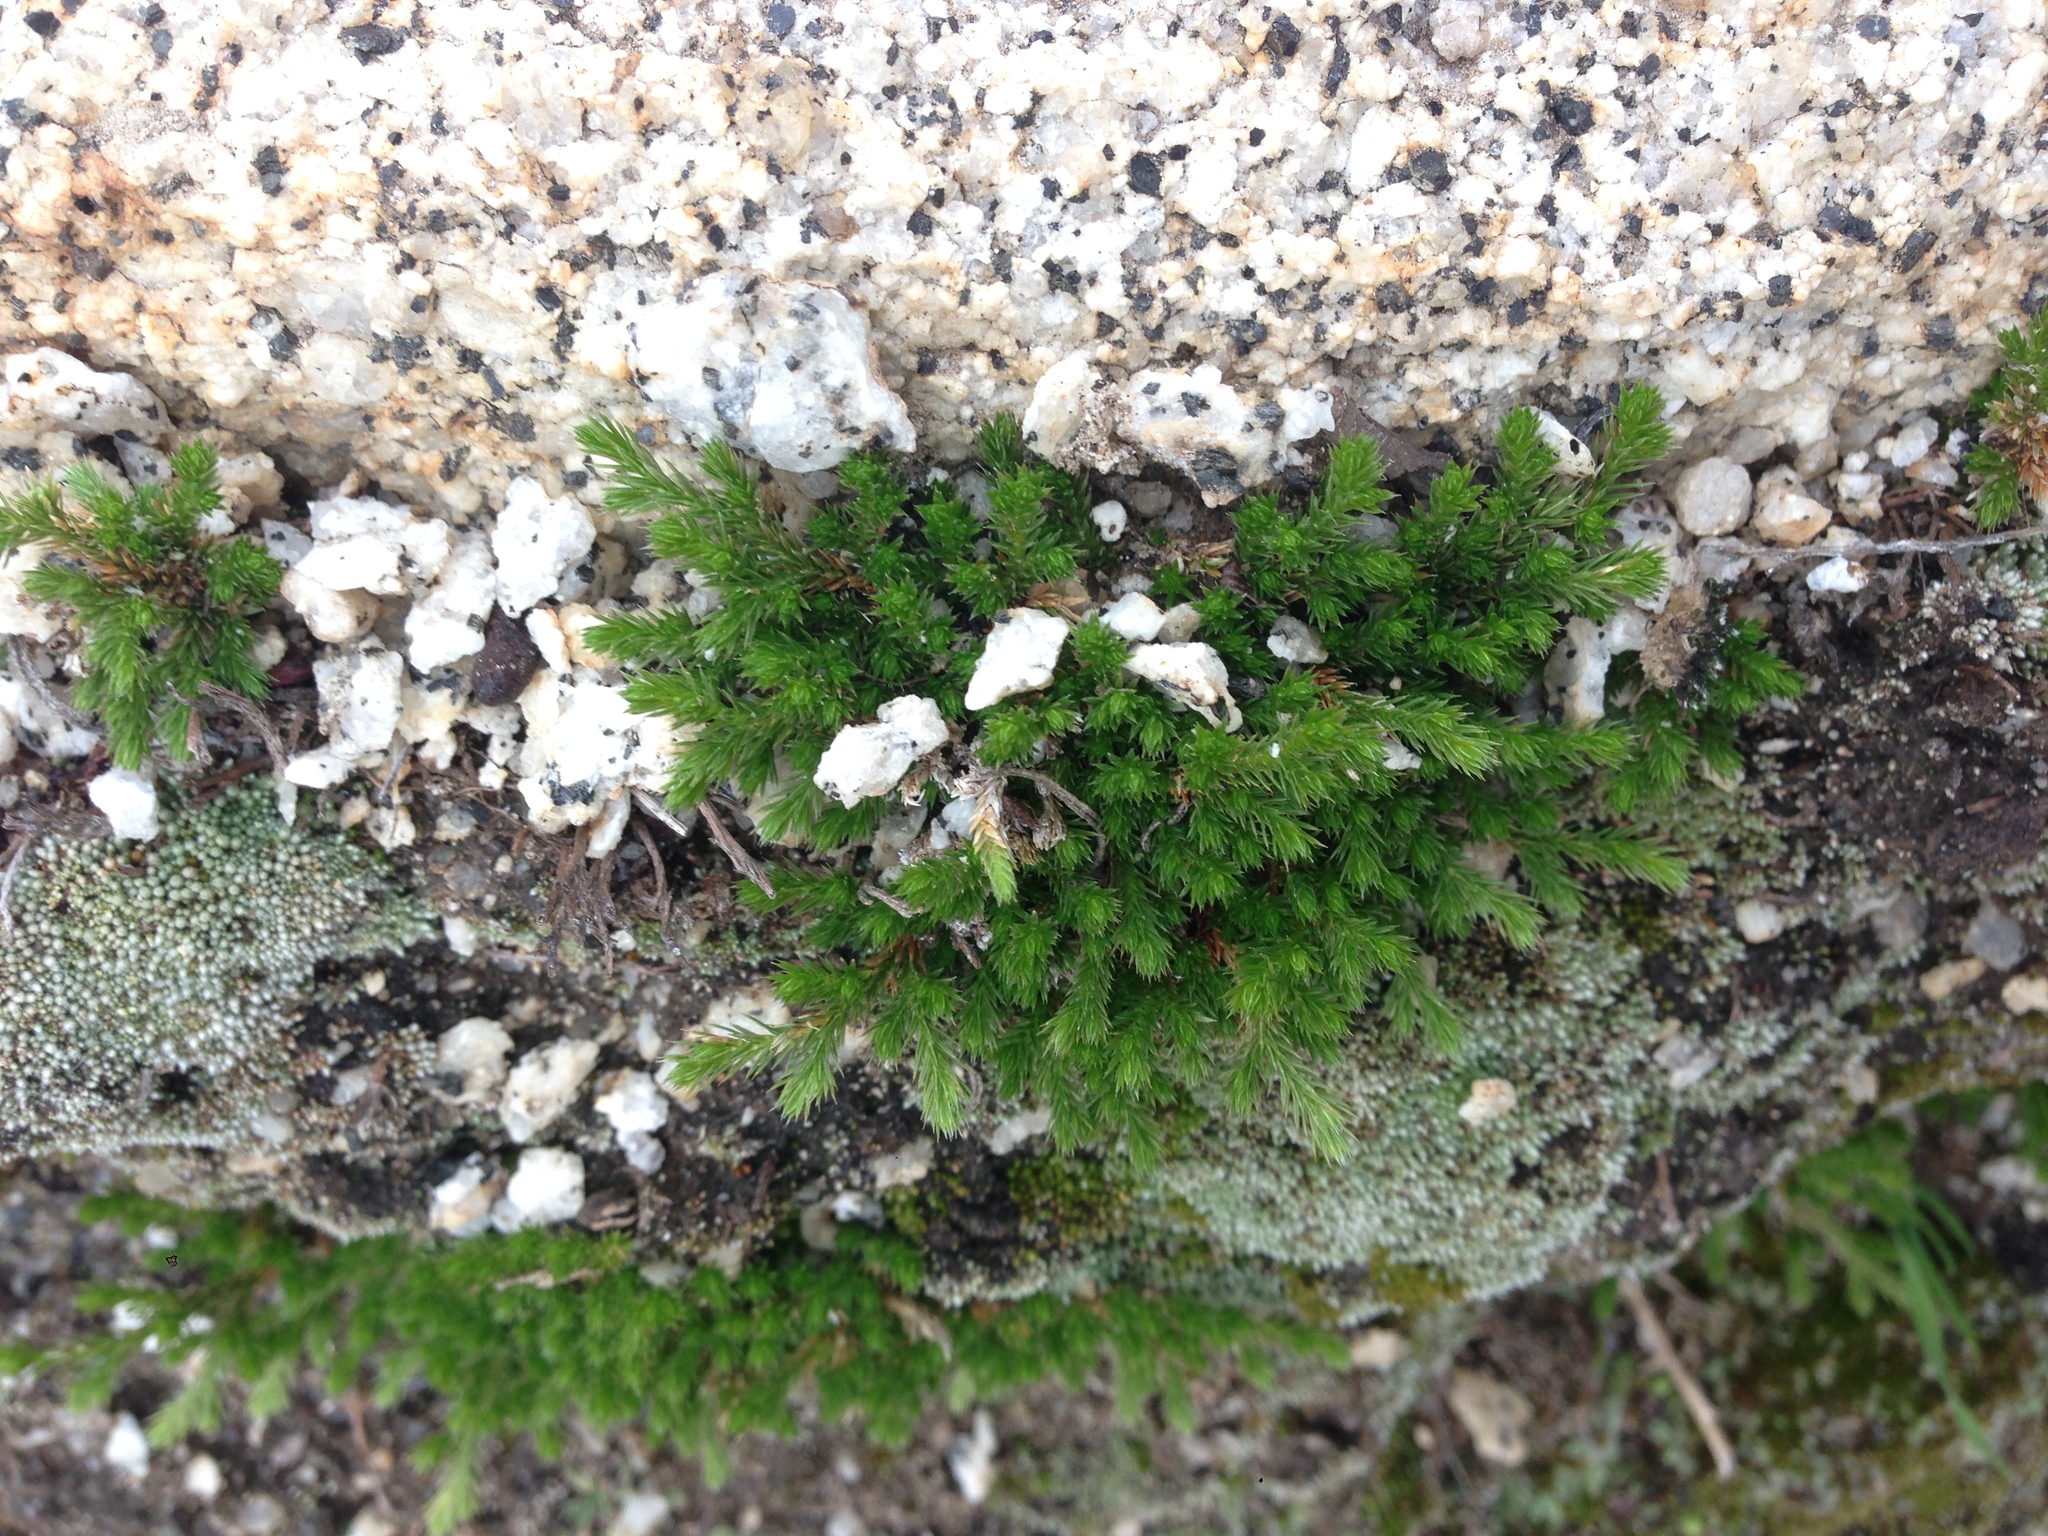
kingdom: Plantae
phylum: Tracheophyta
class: Lycopodiopsida
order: Selaginellales
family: Selaginellaceae
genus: Selaginella
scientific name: Selaginella bigelovii
